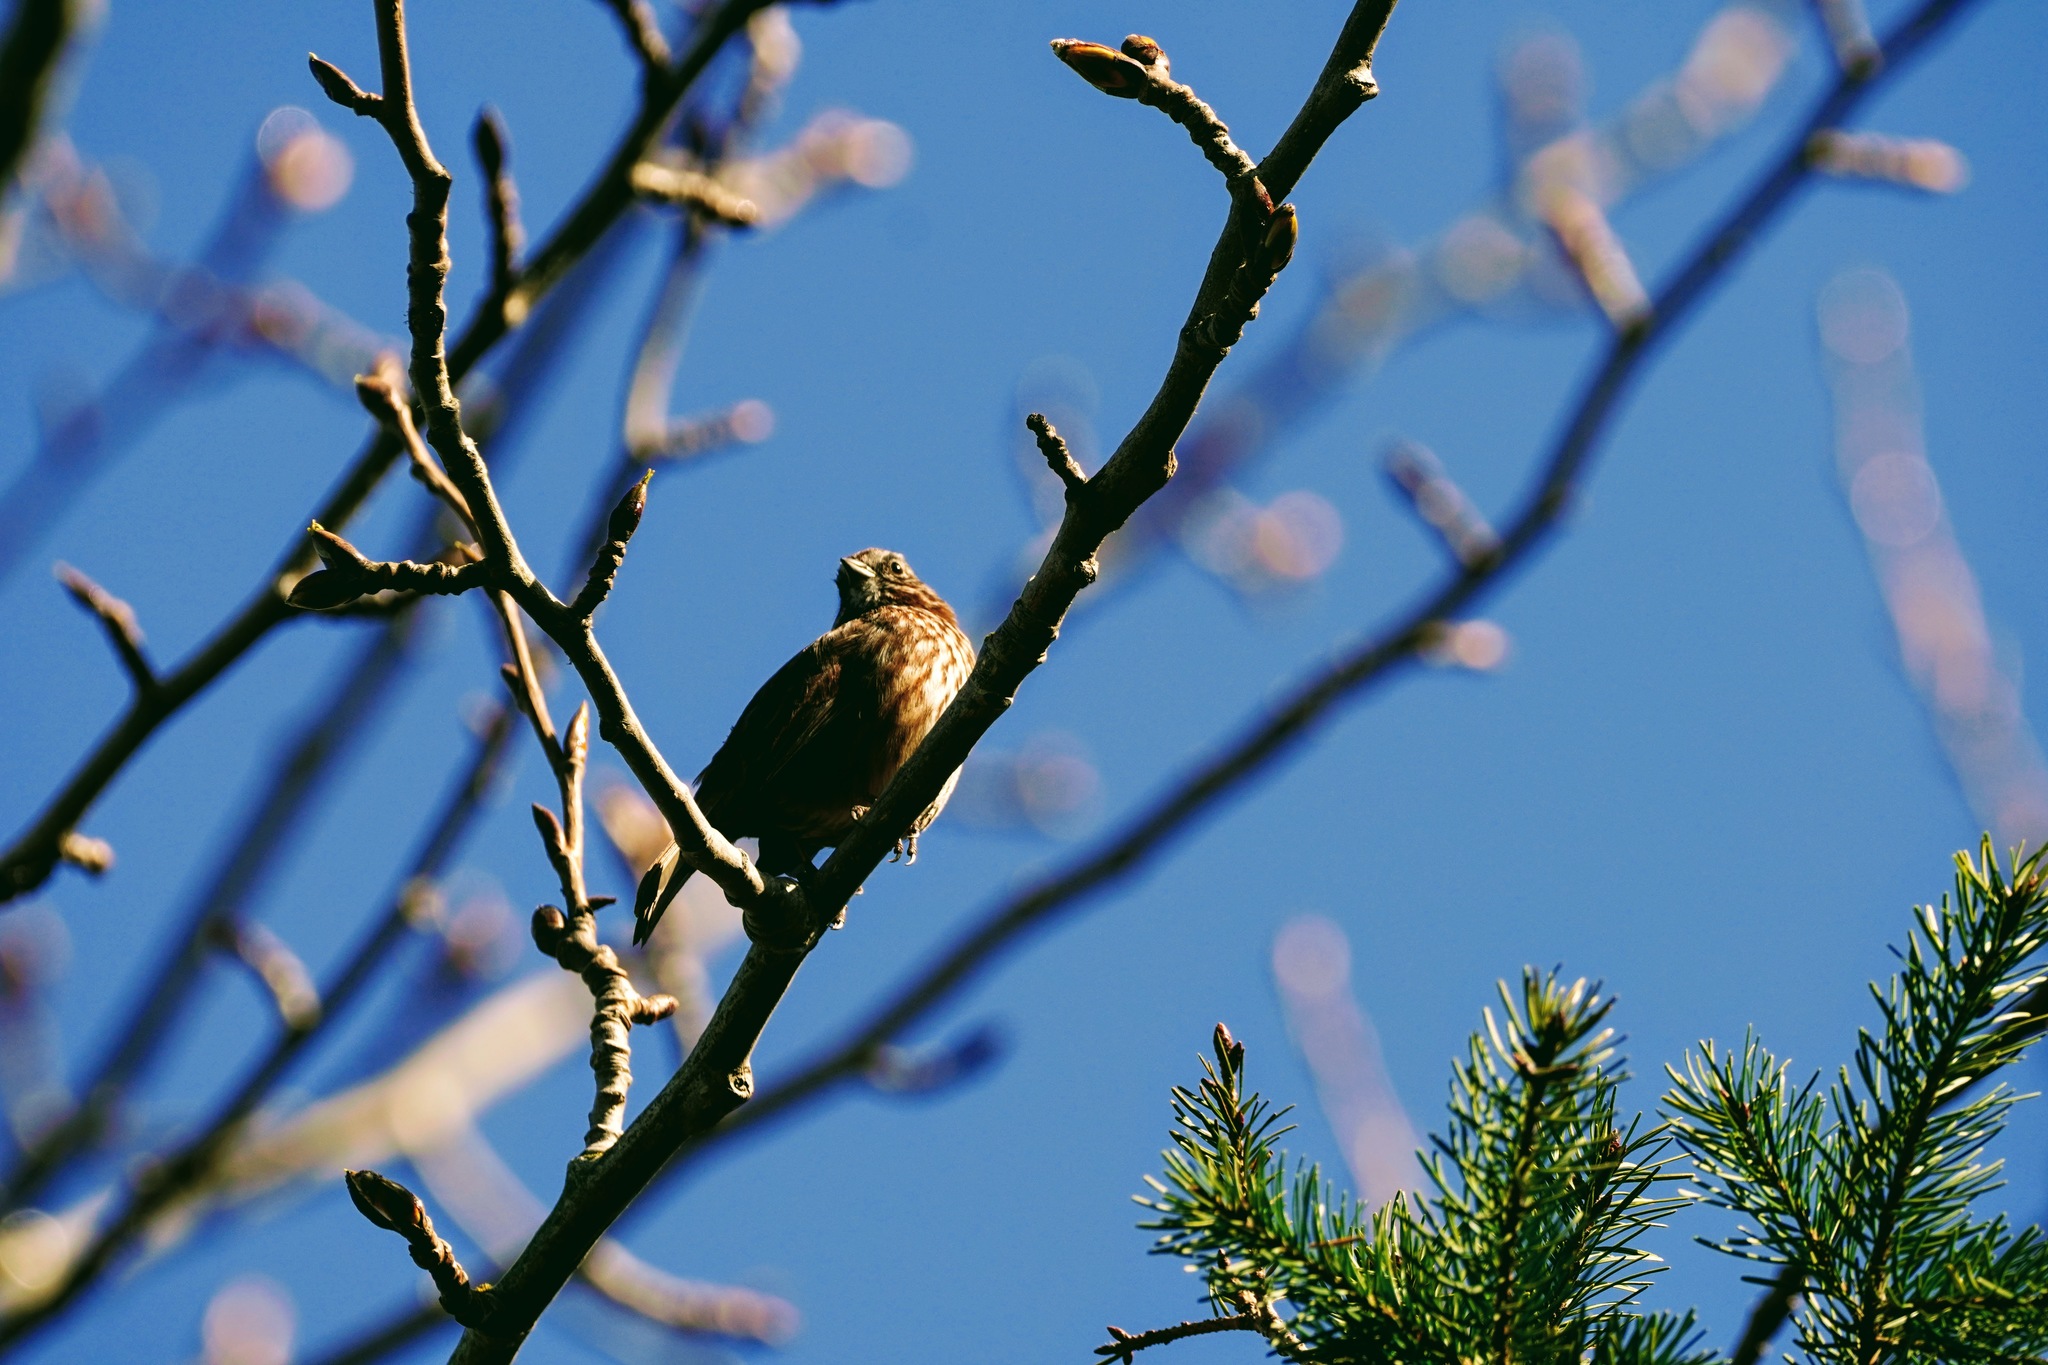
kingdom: Animalia
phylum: Chordata
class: Aves
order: Passeriformes
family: Passerellidae
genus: Melospiza
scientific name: Melospiza melodia
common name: Song sparrow
